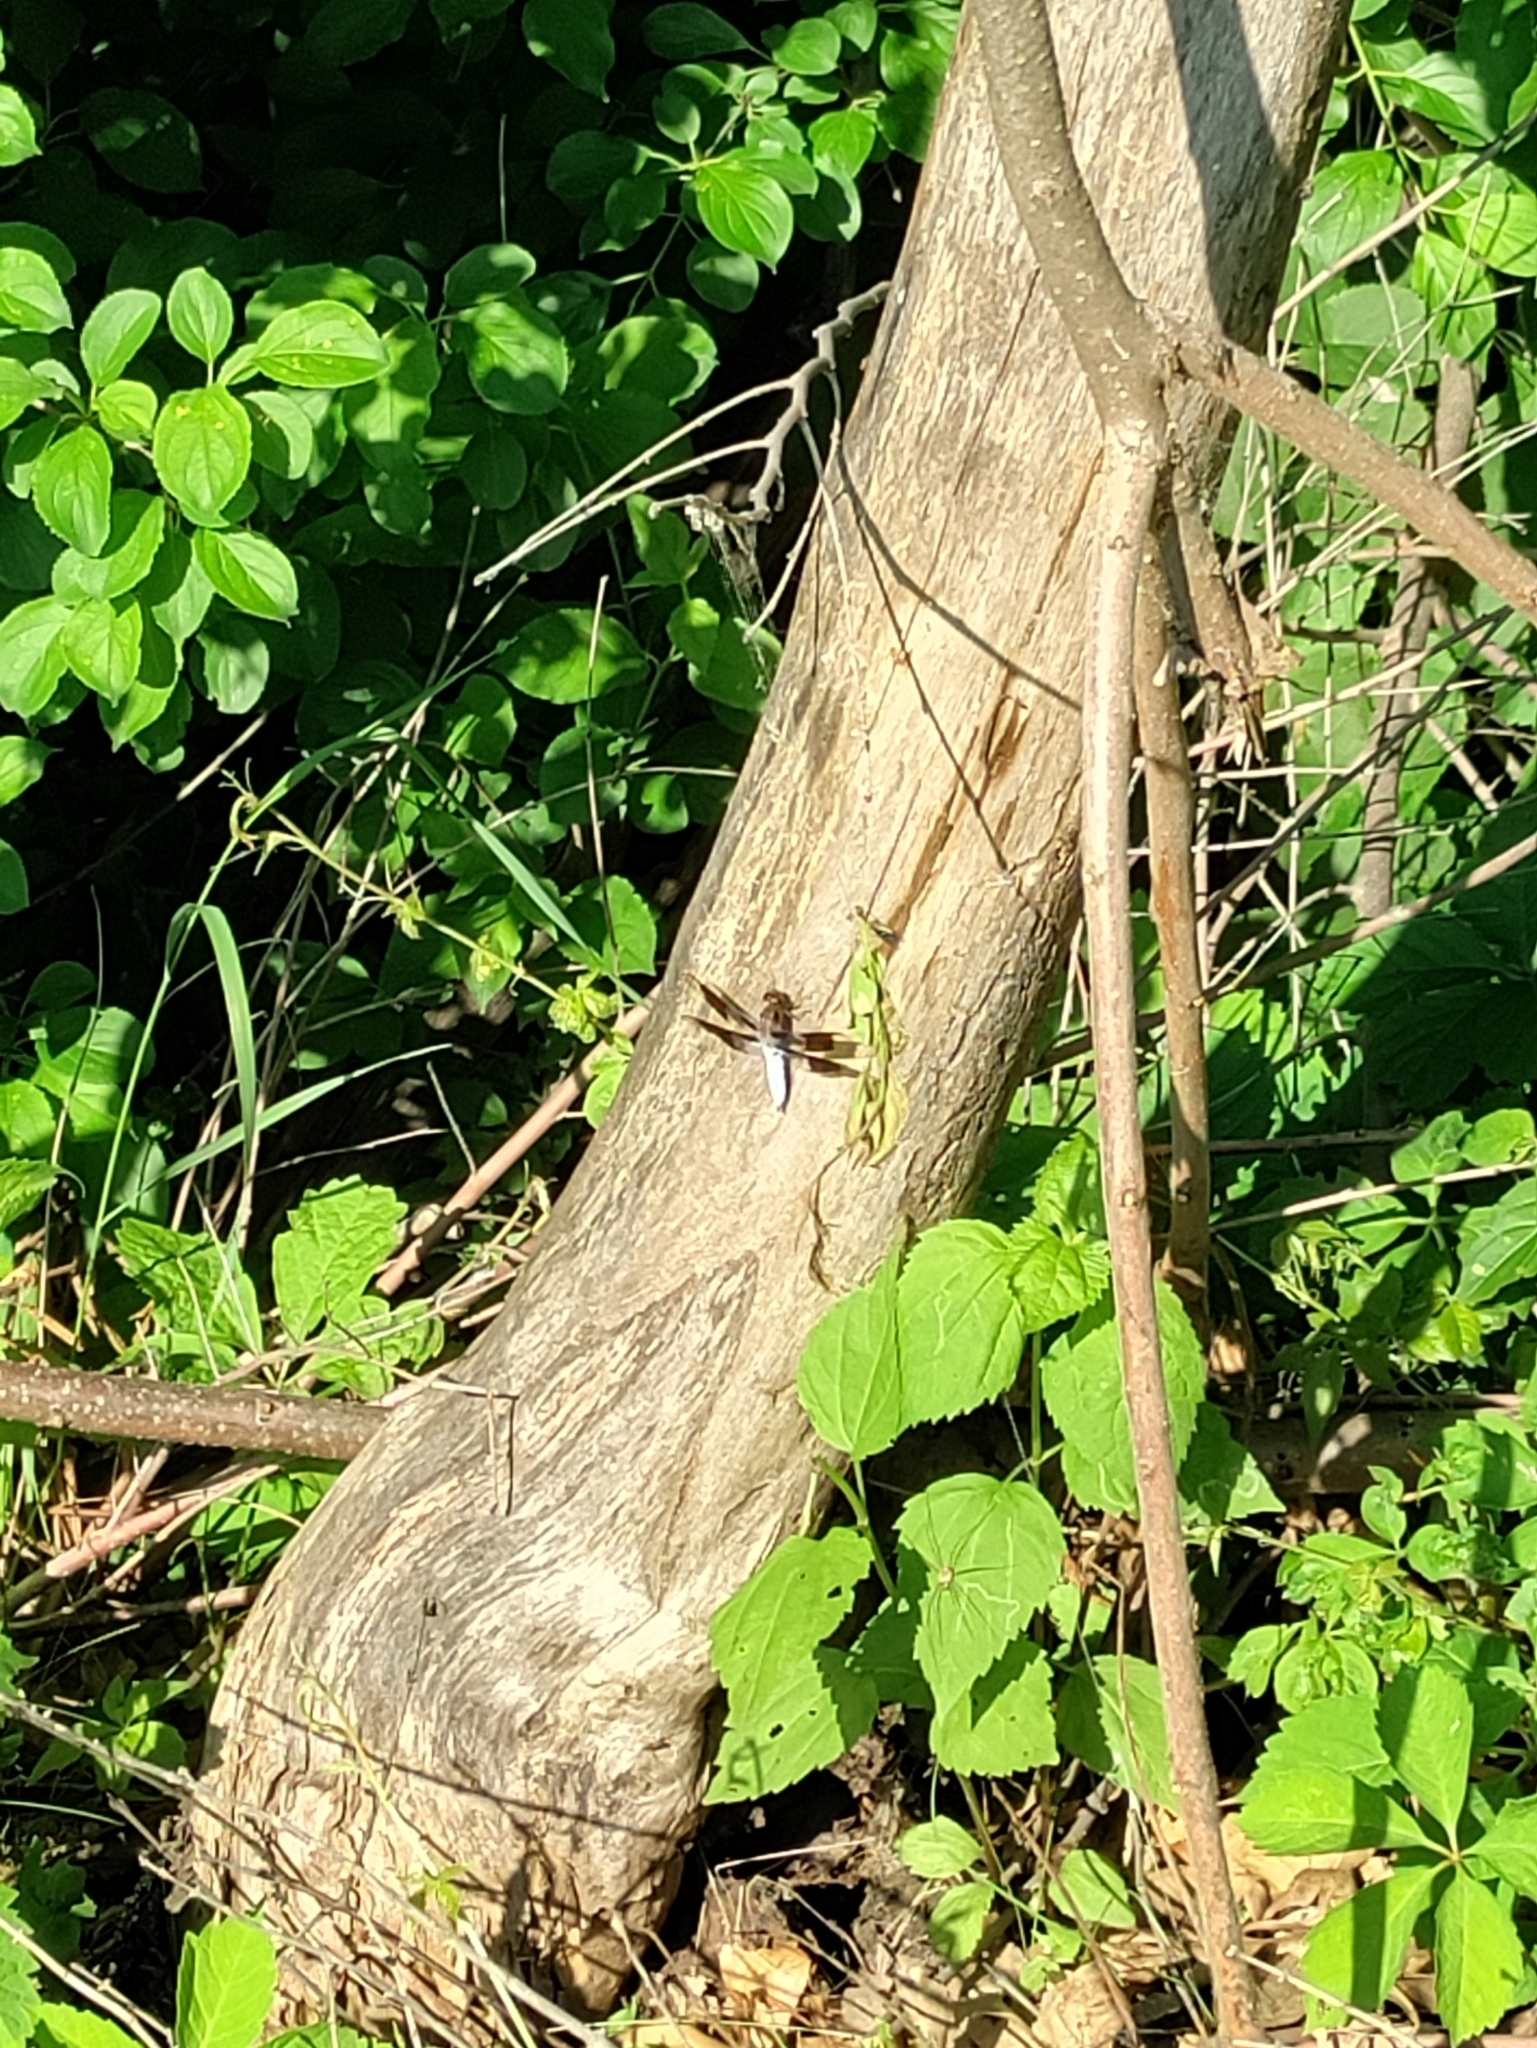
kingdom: Animalia
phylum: Arthropoda
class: Insecta
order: Odonata
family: Libellulidae
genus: Plathemis
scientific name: Plathemis lydia
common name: Common whitetail
